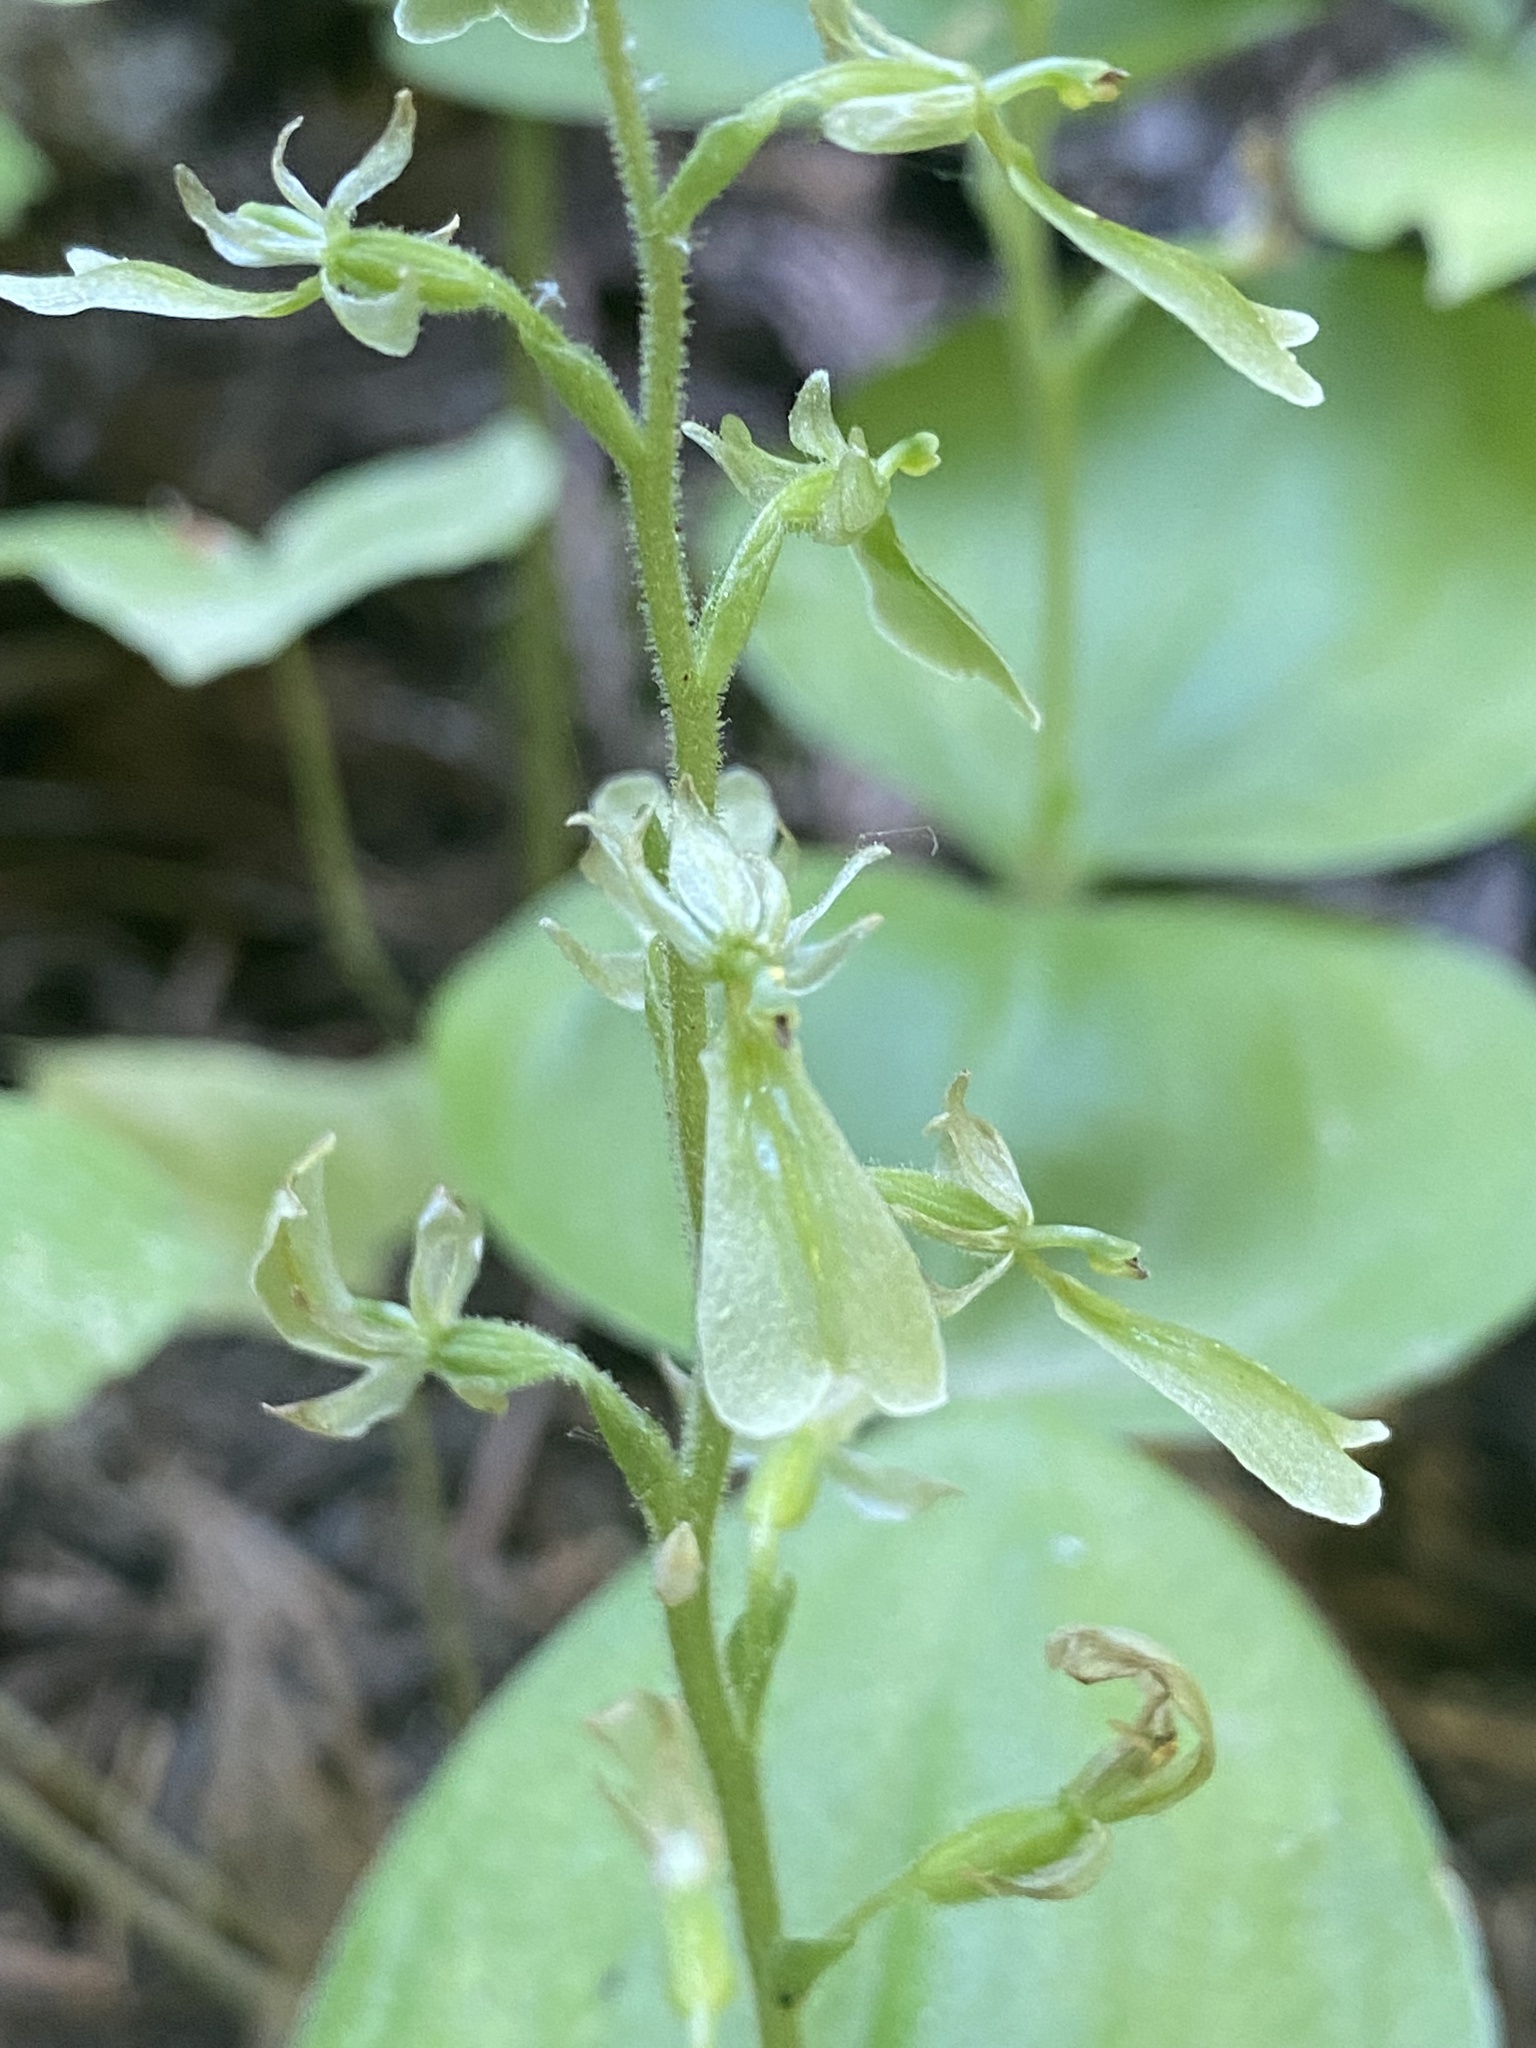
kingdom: Plantae
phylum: Tracheophyta
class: Liliopsida
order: Asparagales
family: Orchidaceae
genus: Neottia
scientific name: Neottia convallarioides
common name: Broadleaf twayblade
